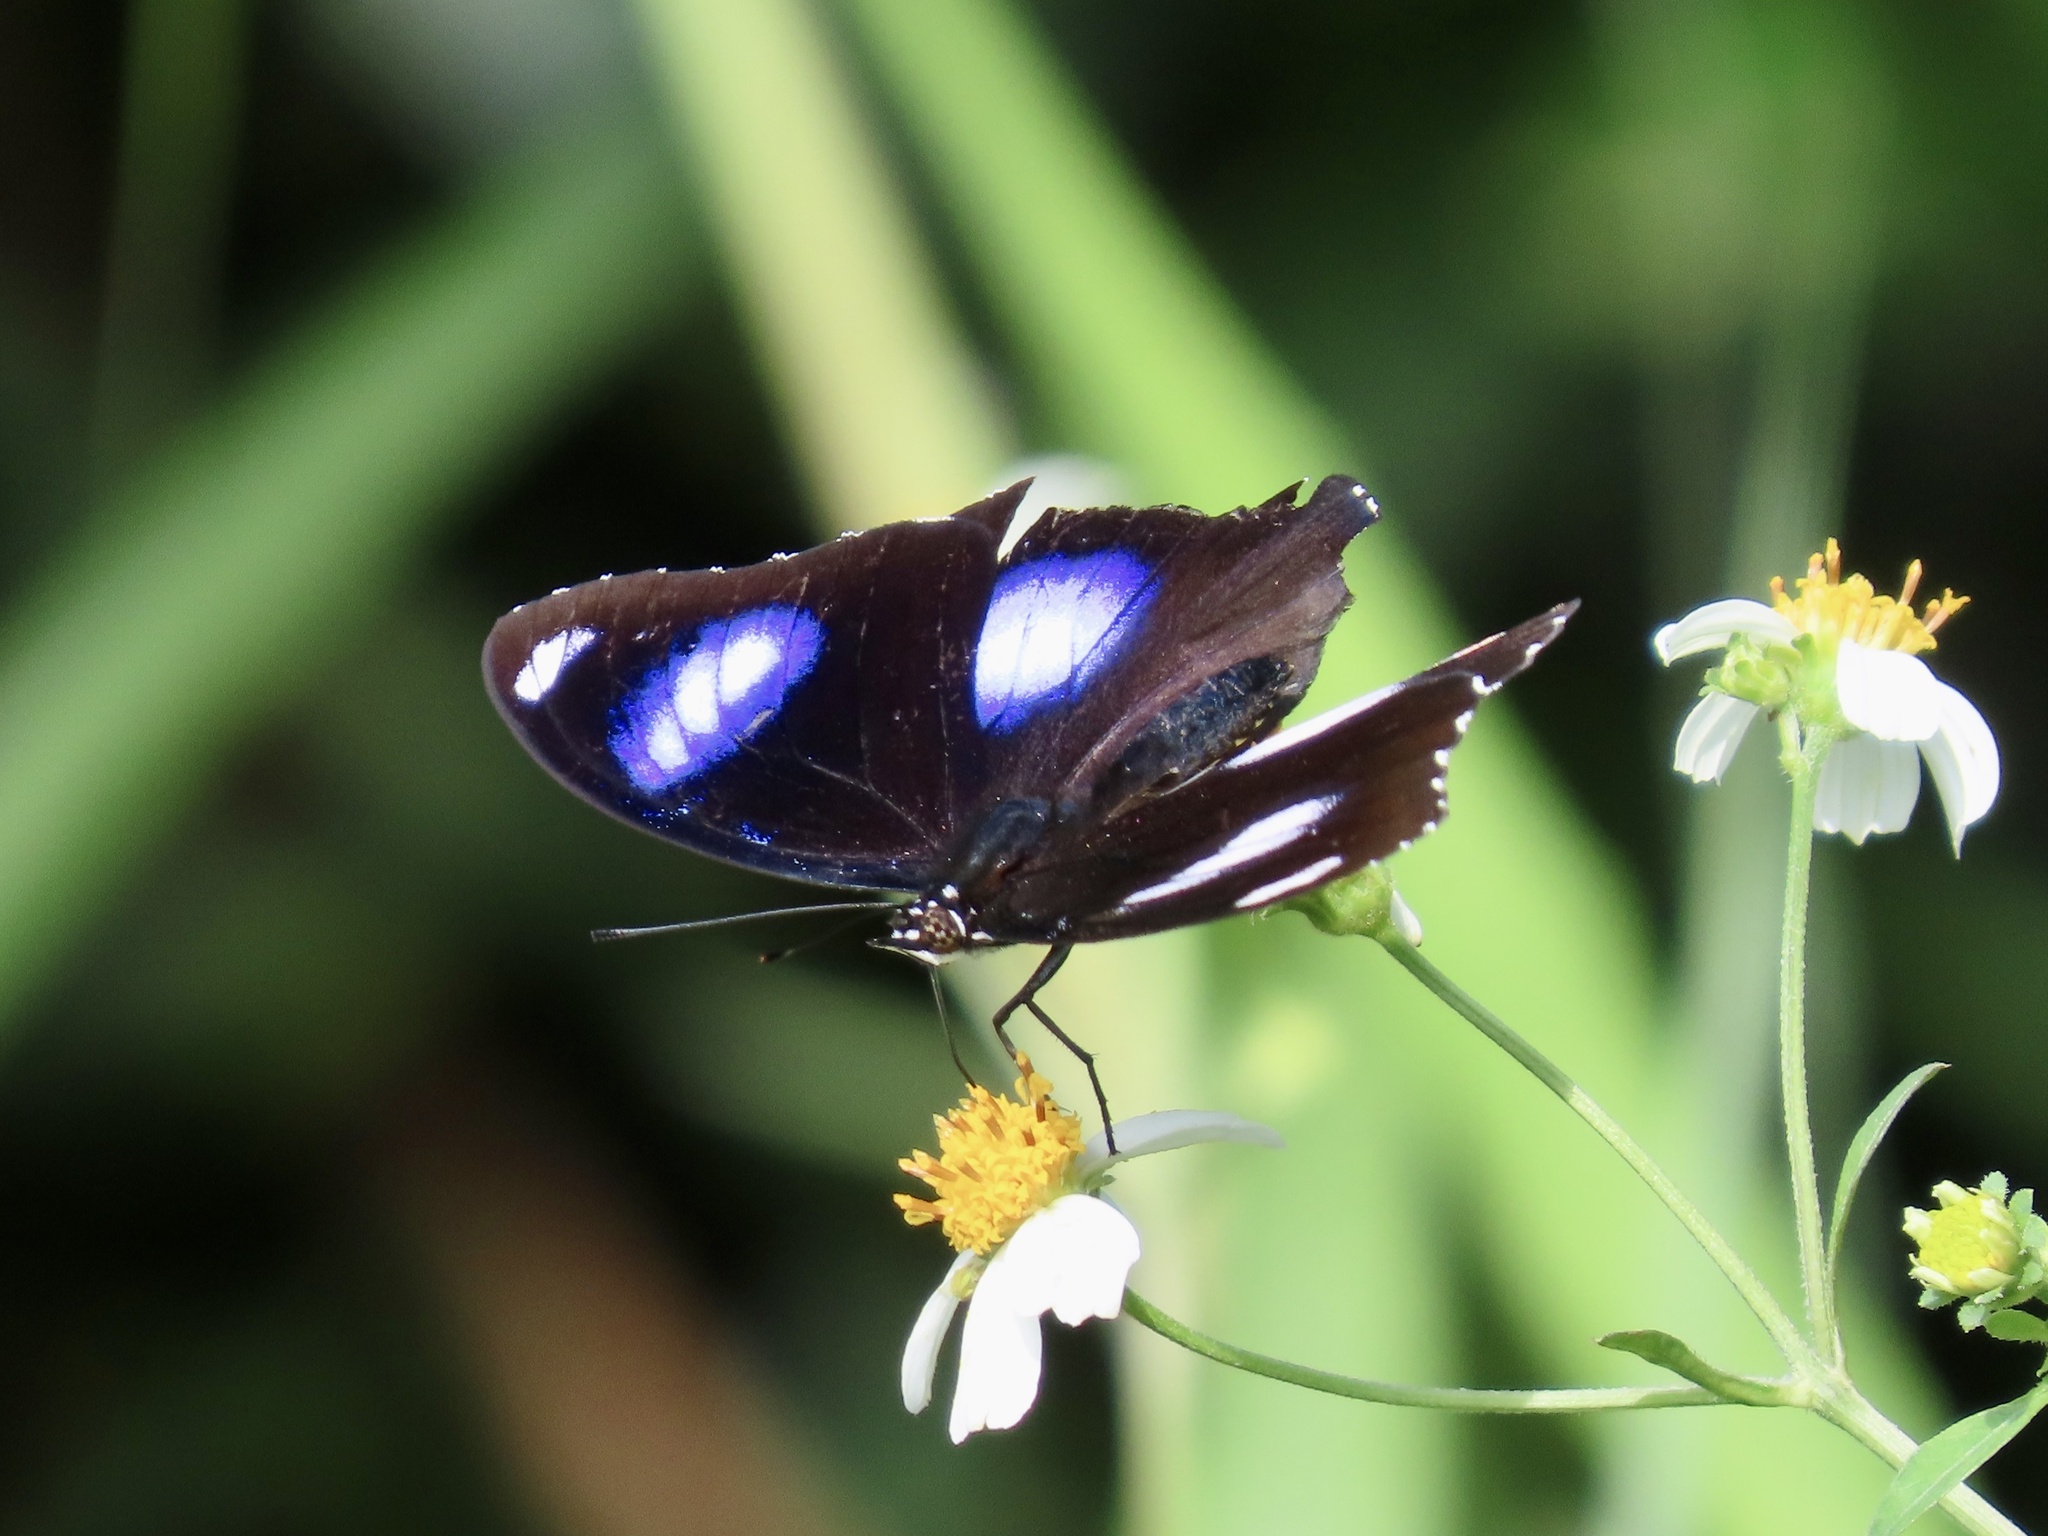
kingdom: Animalia
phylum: Arthropoda
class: Insecta
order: Lepidoptera
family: Nymphalidae
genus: Hypolimnas
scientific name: Hypolimnas bolina
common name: Great eggfly
